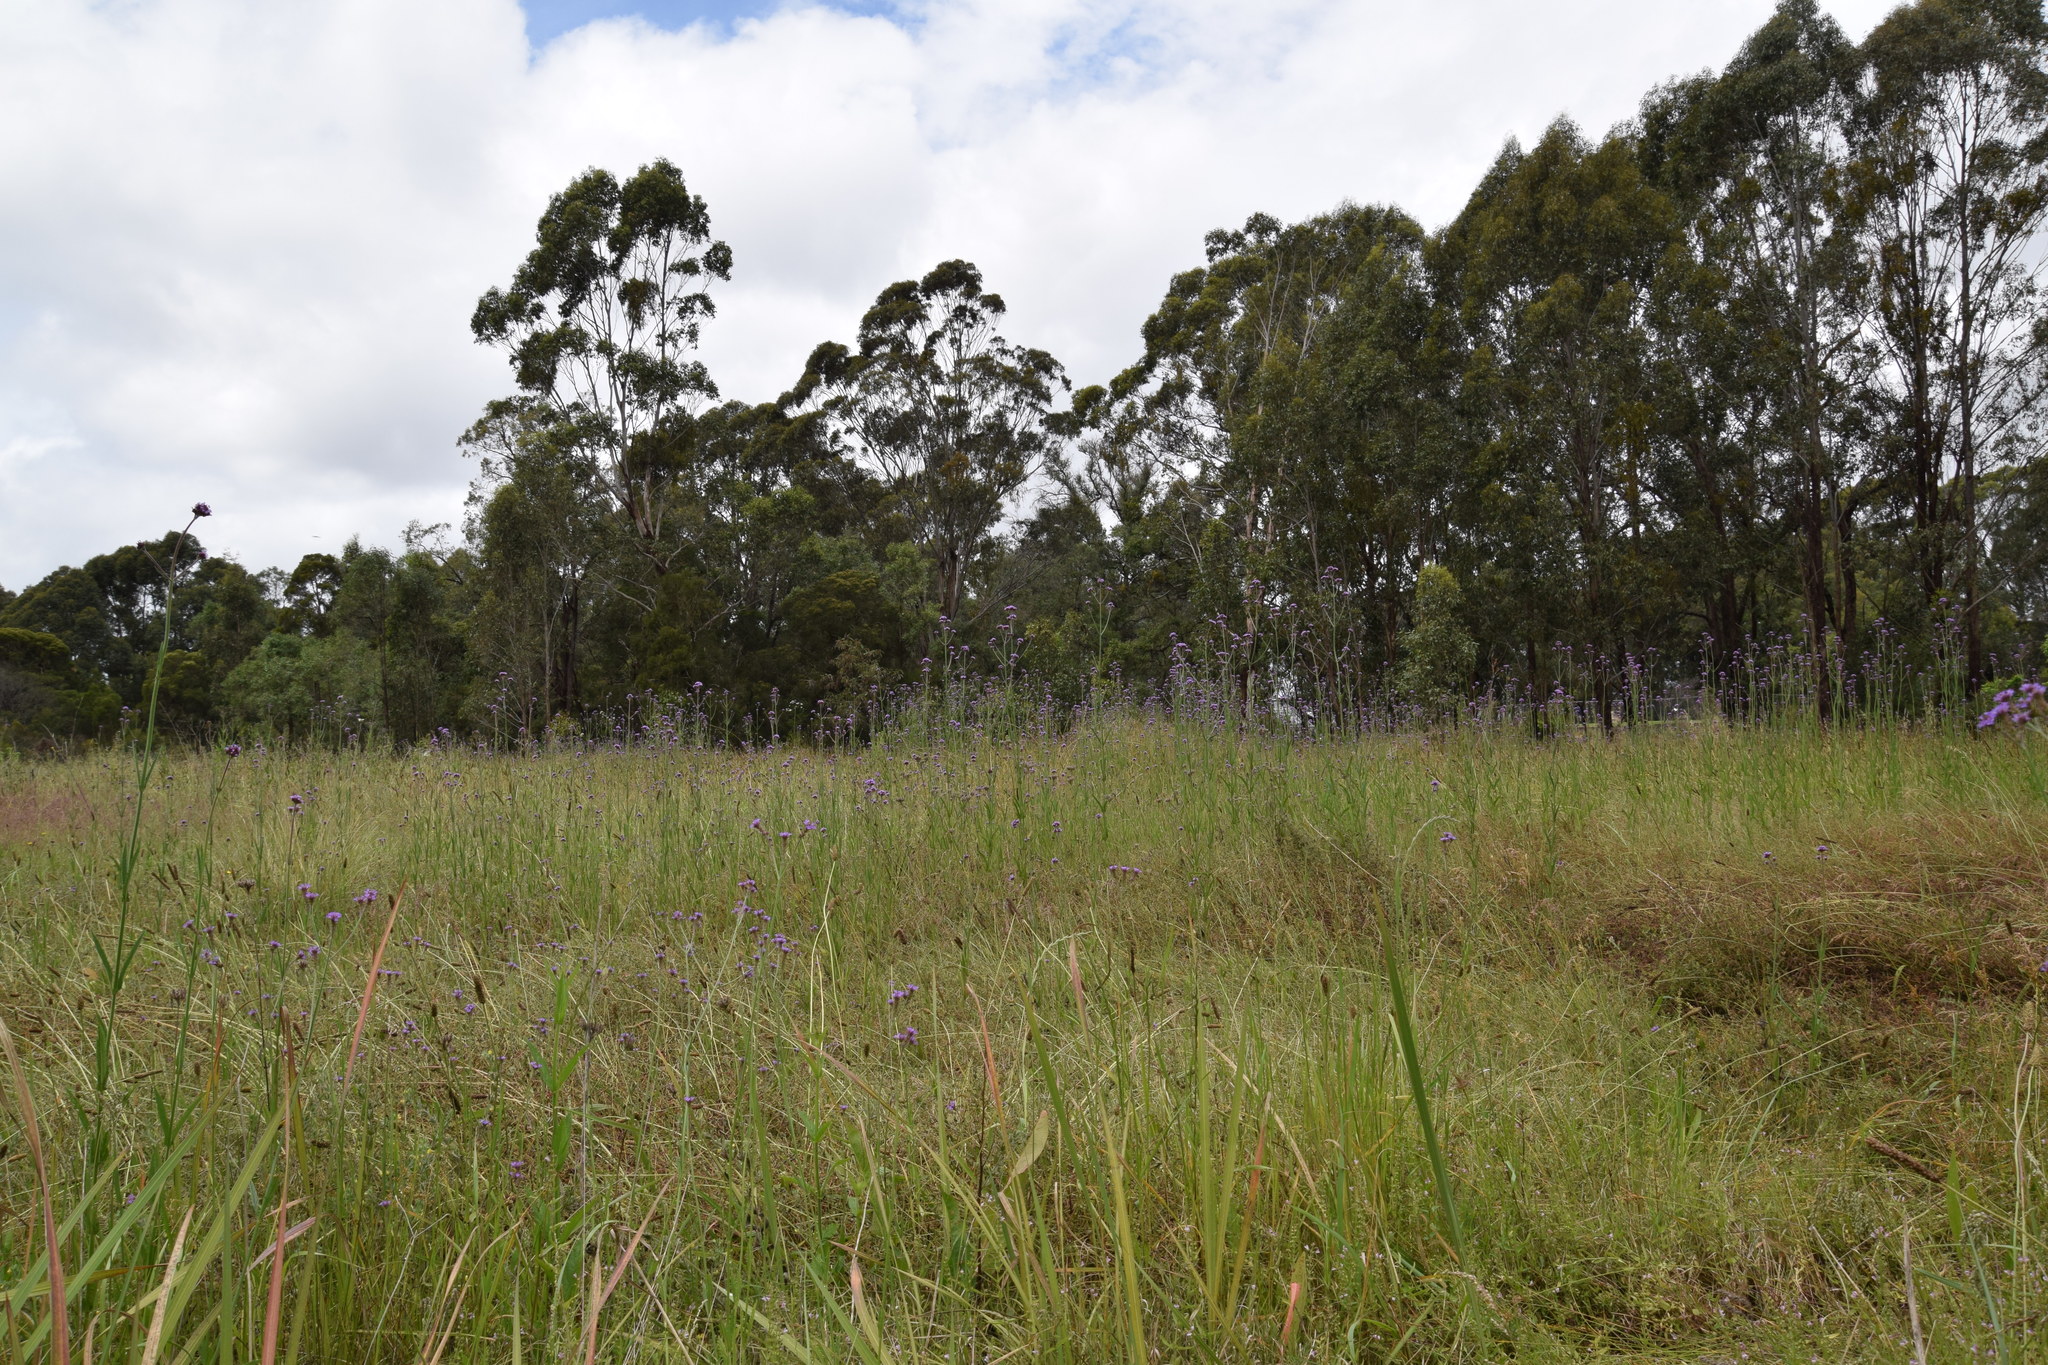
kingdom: Plantae
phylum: Tracheophyta
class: Magnoliopsida
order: Lamiales
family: Verbenaceae
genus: Verbena
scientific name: Verbena bonariensis
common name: Purpletop vervain
